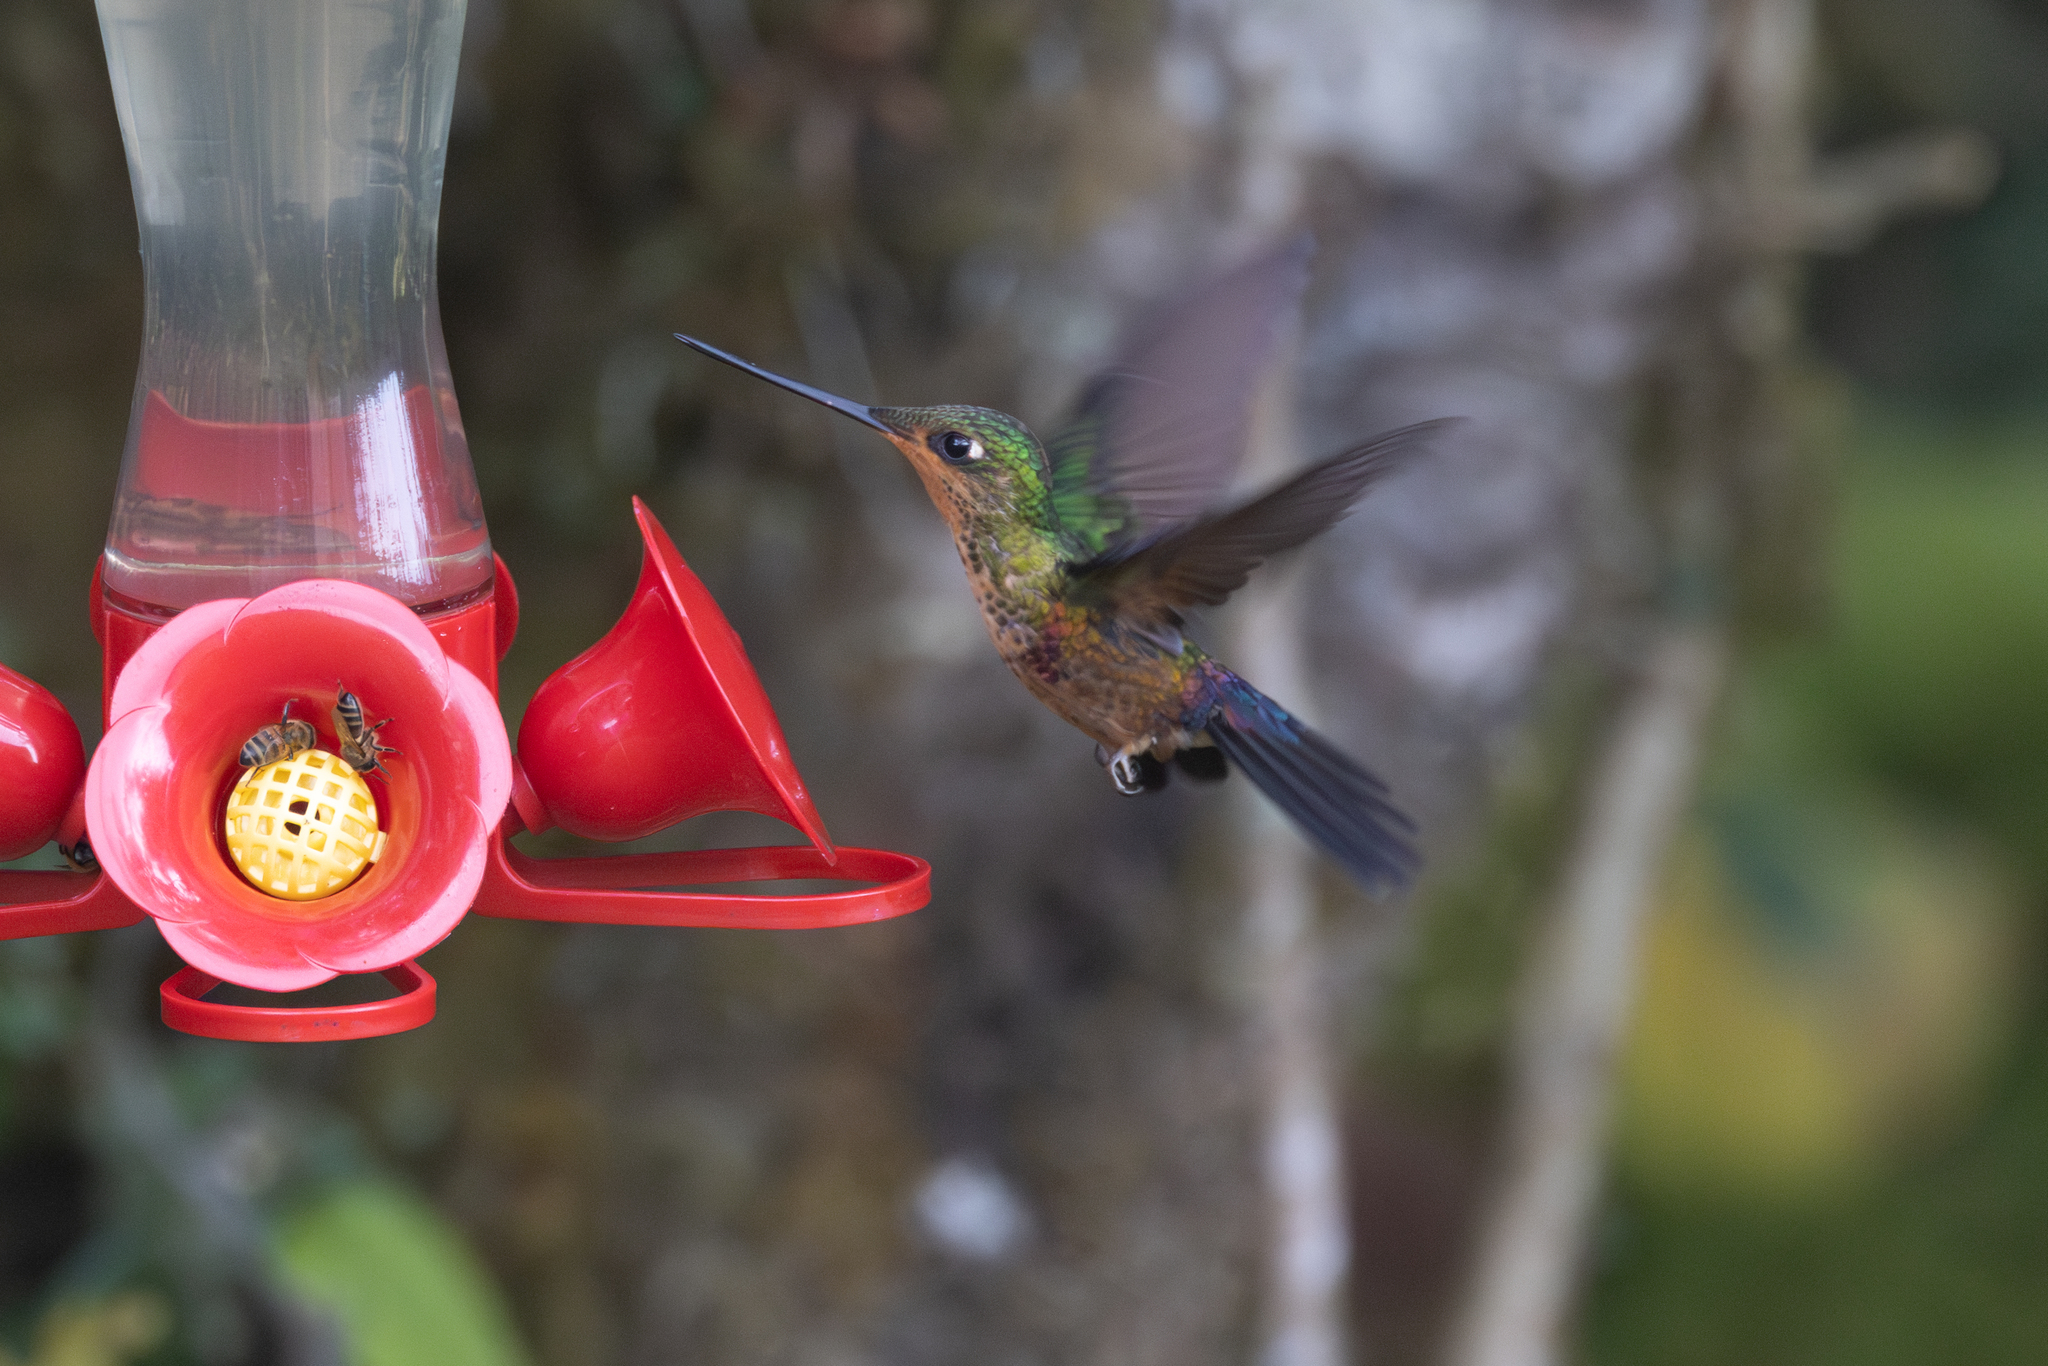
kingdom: Animalia
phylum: Chordata
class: Aves
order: Apodiformes
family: Trochilidae
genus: Coeligena
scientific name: Coeligena helianthea
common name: Blue-throated starfrontlet
